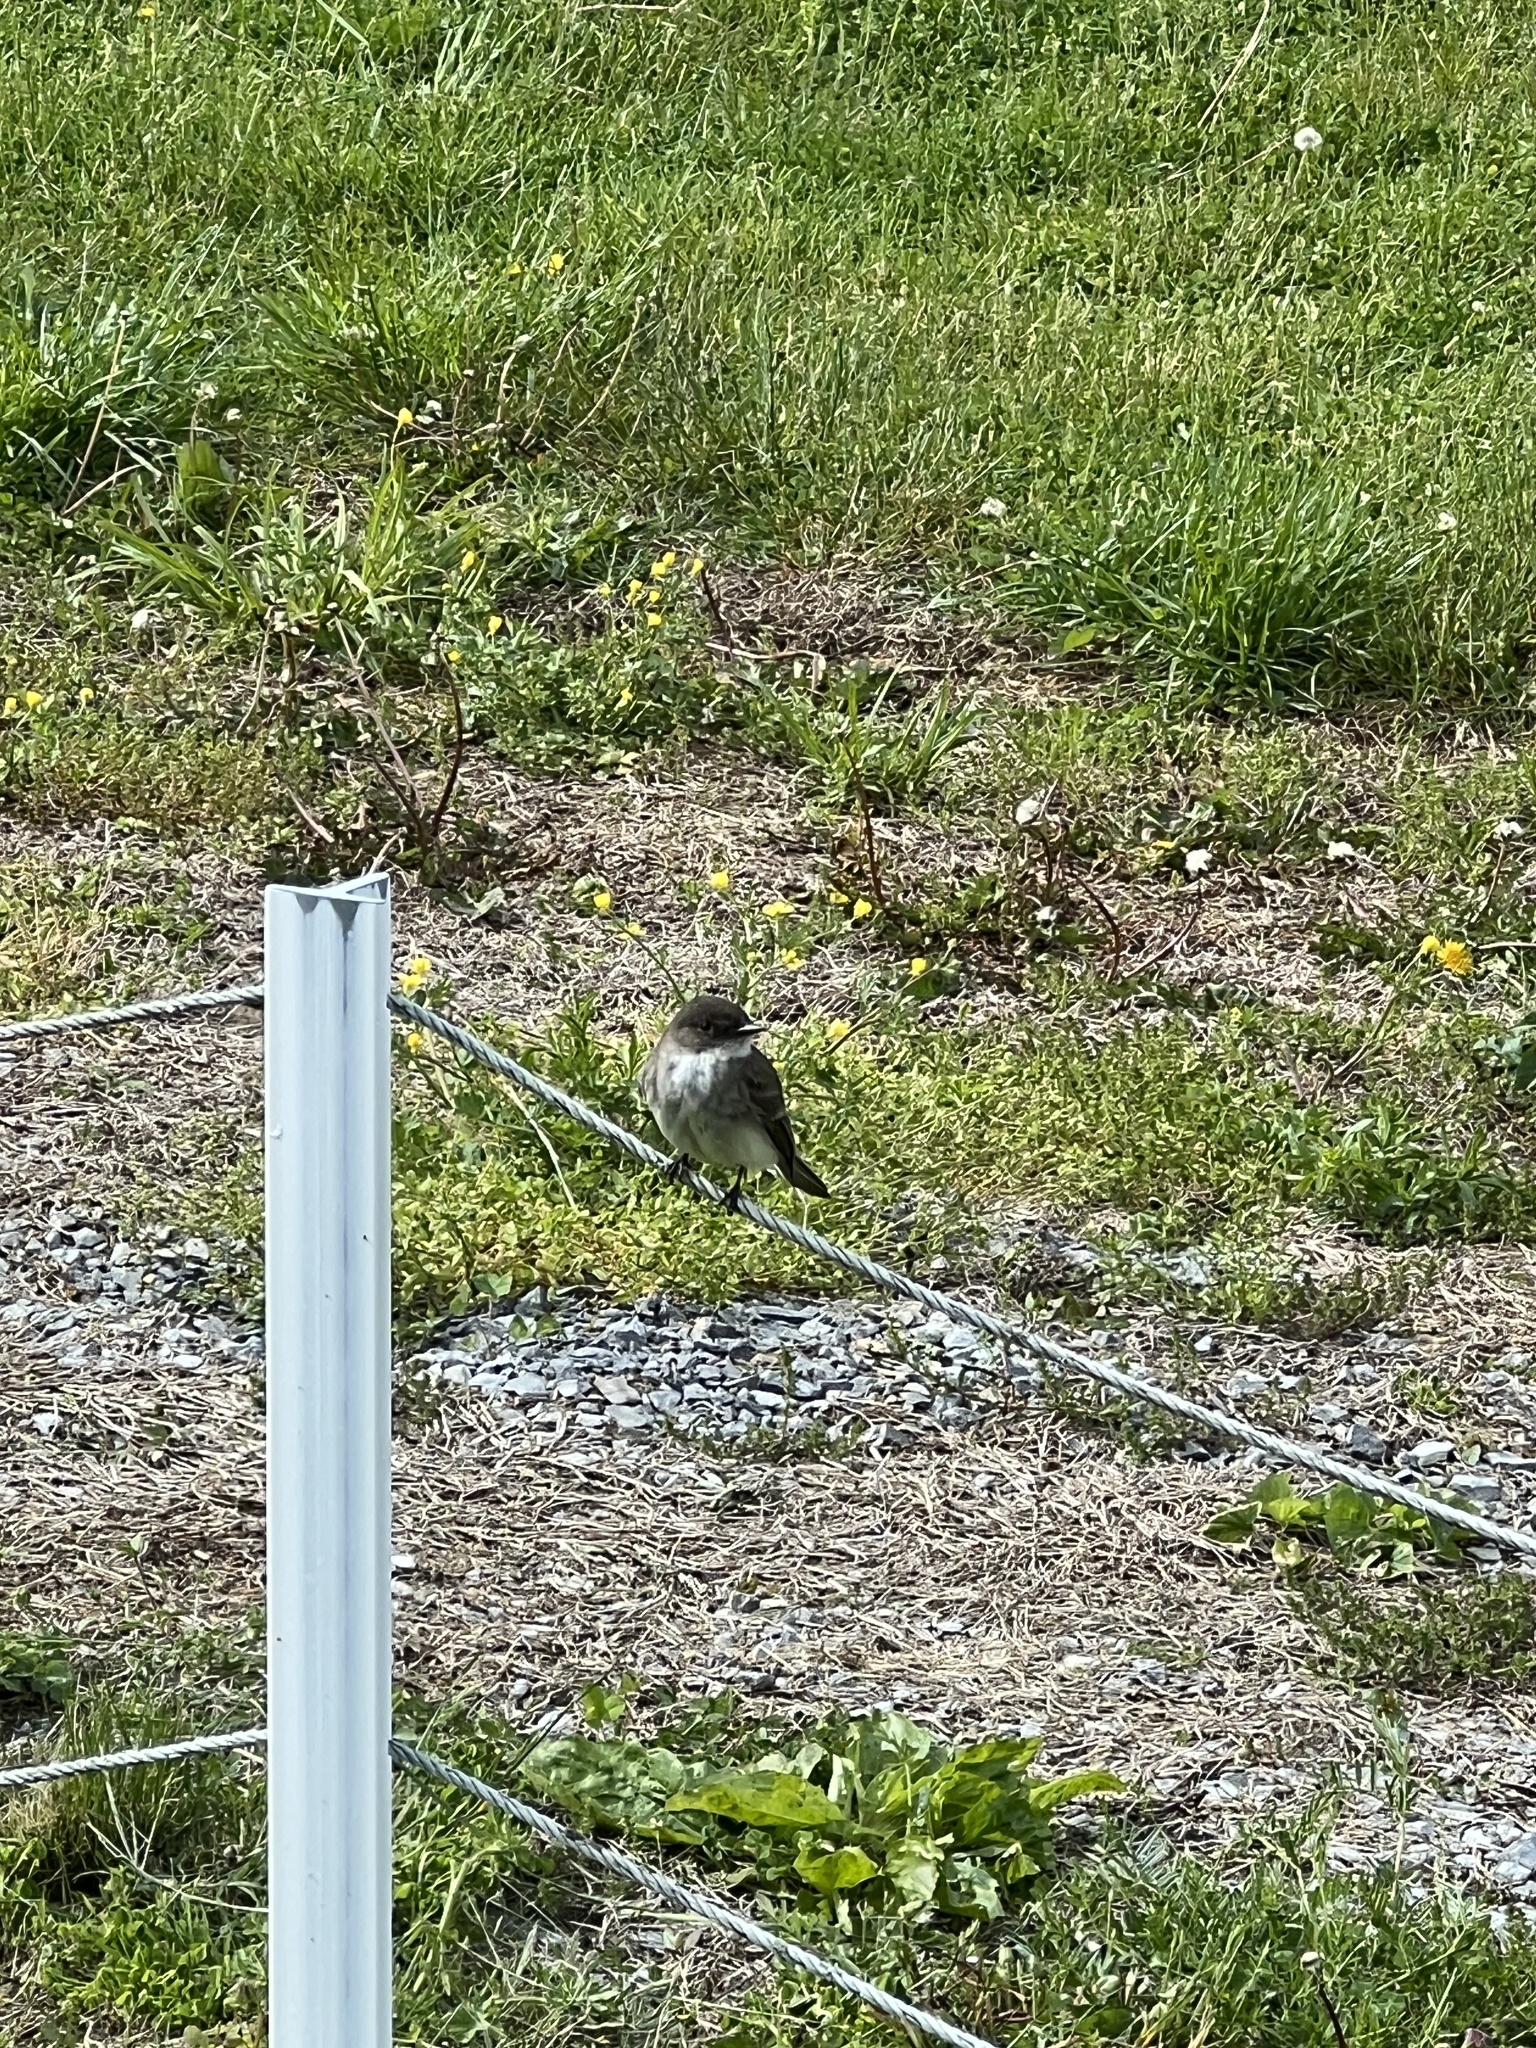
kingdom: Animalia
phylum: Chordata
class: Aves
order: Passeriformes
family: Tyrannidae
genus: Sayornis
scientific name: Sayornis phoebe
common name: Eastern phoebe
